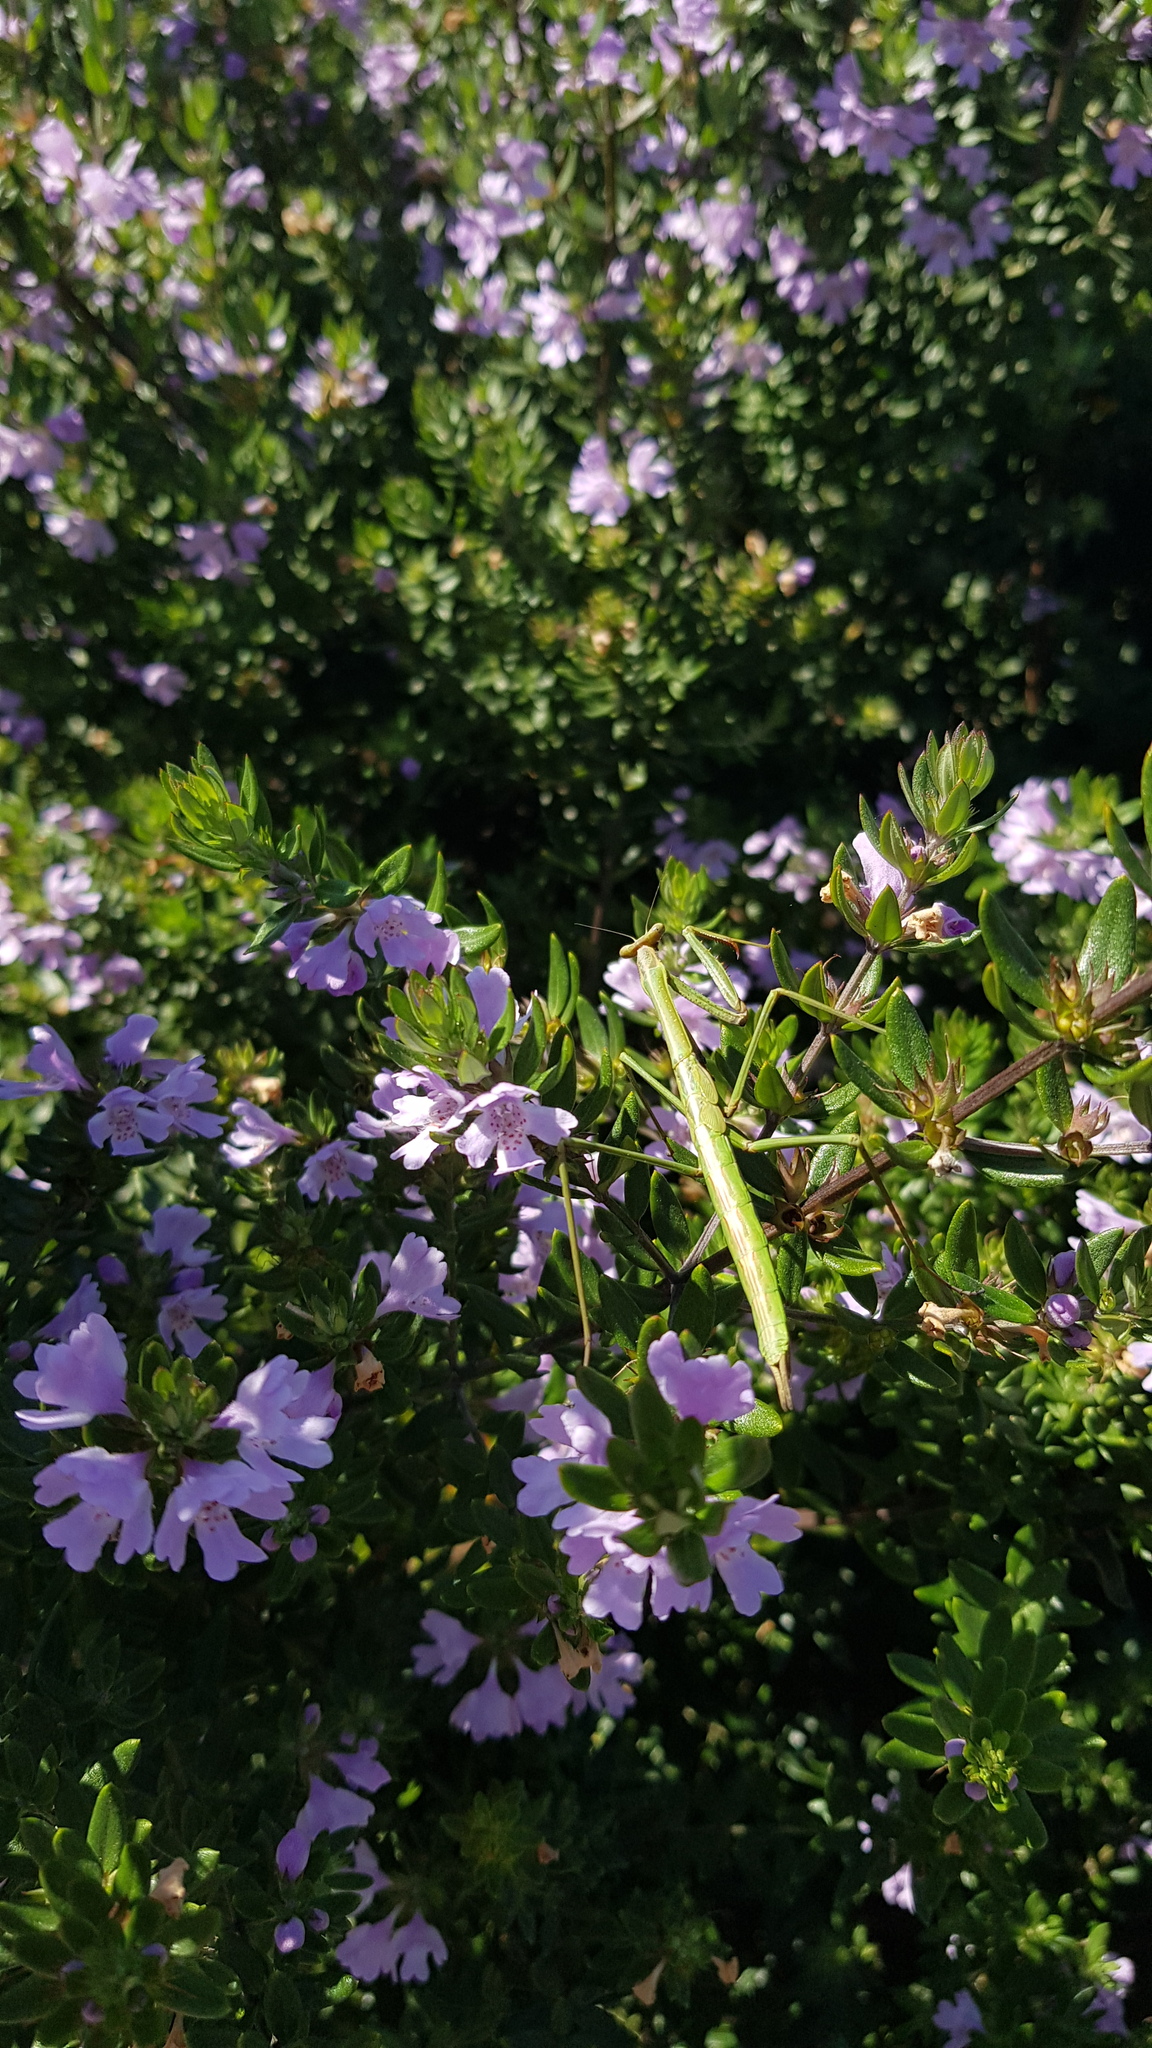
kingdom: Animalia
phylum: Arthropoda
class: Insecta
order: Mantodea
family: Mantidae
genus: Archimantis
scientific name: Archimantis latistyla
